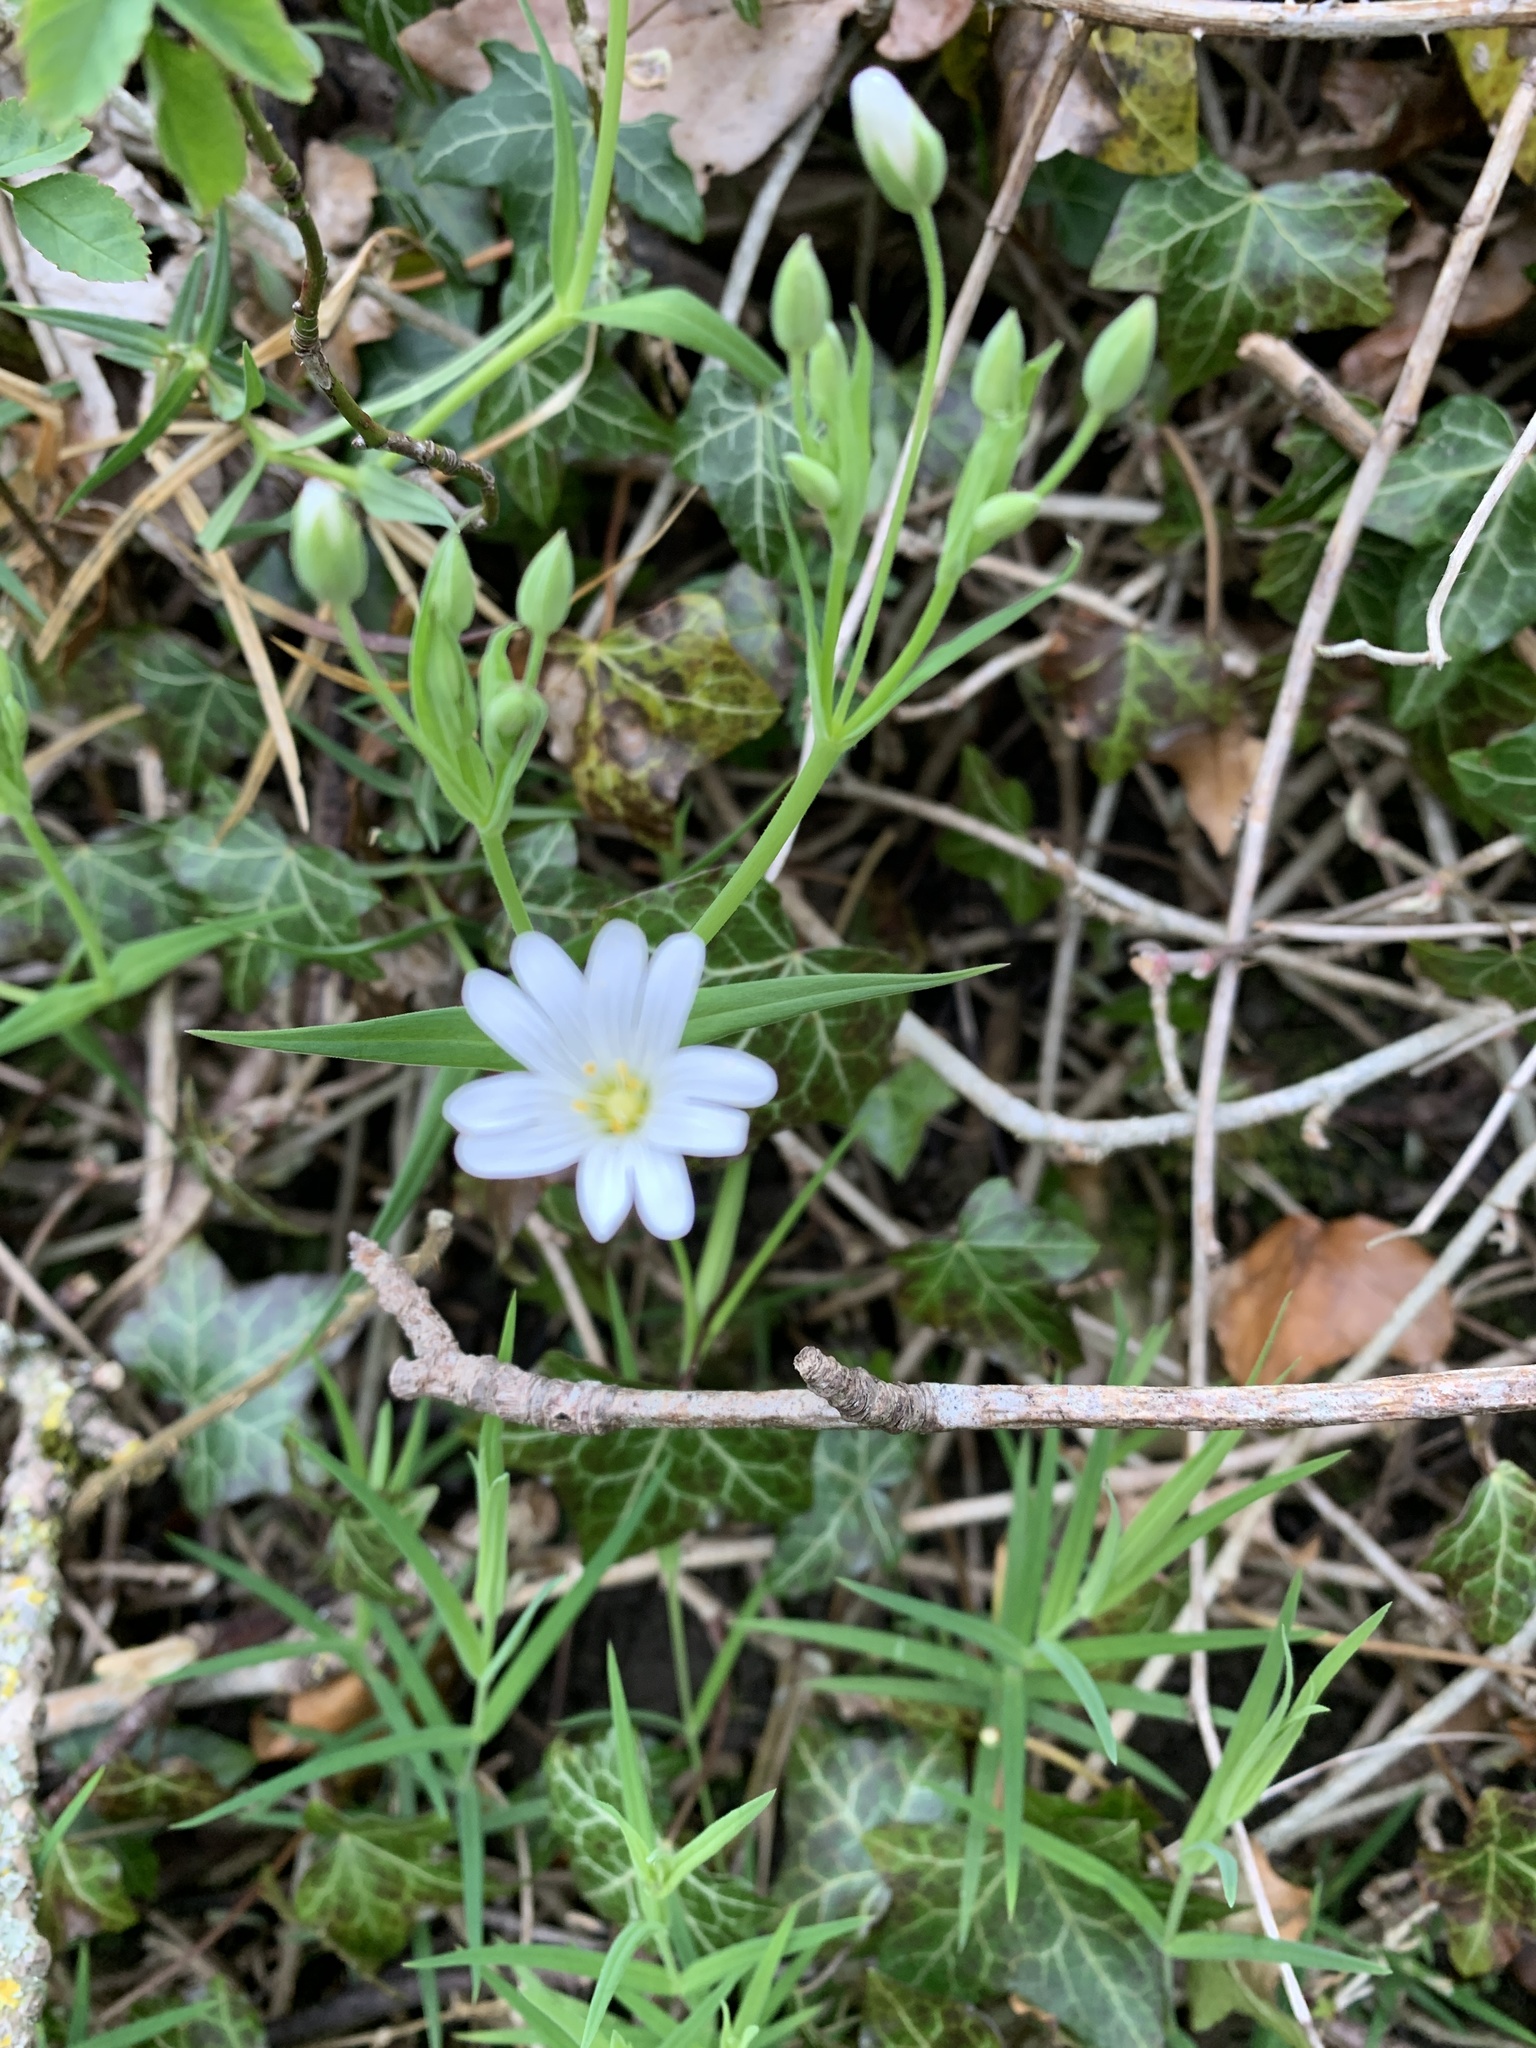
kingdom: Plantae
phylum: Tracheophyta
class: Magnoliopsida
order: Caryophyllales
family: Caryophyllaceae
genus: Rabelera
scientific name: Rabelera holostea
